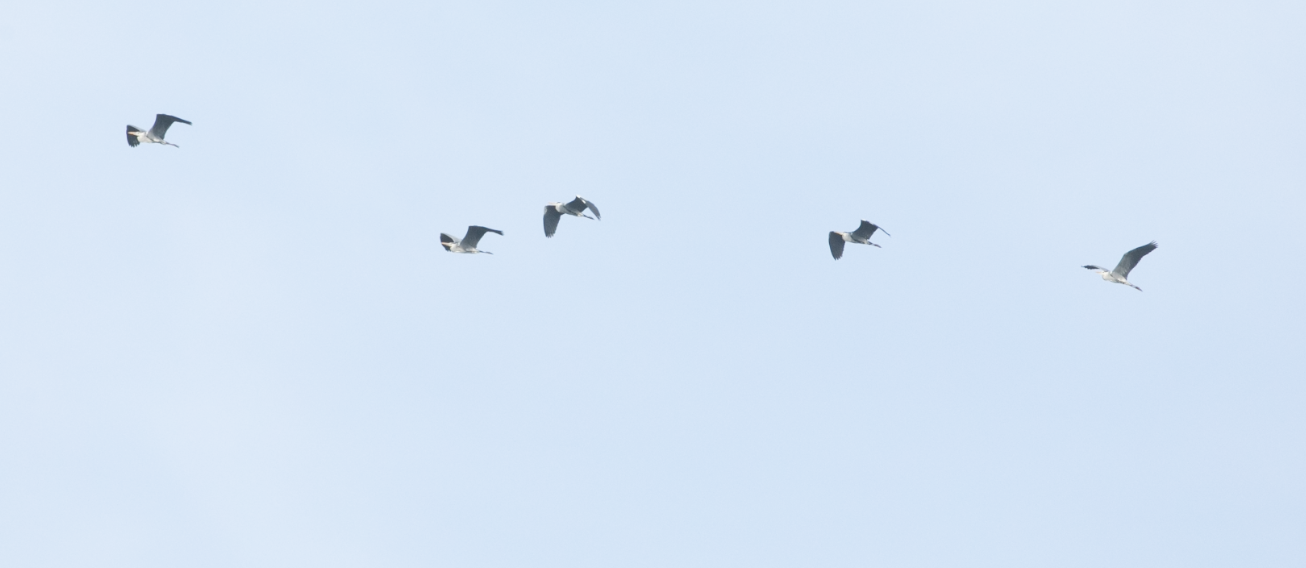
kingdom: Animalia
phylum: Chordata
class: Aves
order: Pelecaniformes
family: Ardeidae
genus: Ardea
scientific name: Ardea cinerea
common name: Grey heron
